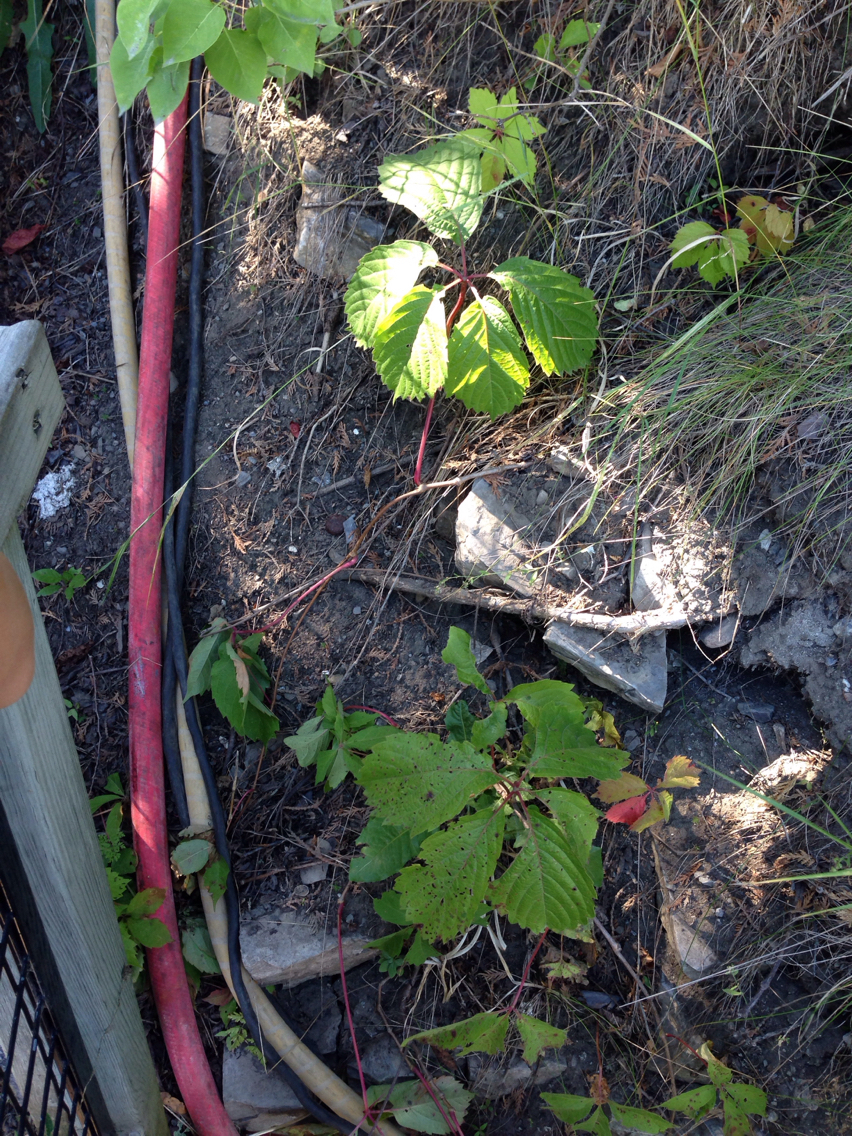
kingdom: Plantae
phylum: Tracheophyta
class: Magnoliopsida
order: Vitales
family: Vitaceae
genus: Parthenocissus
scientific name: Parthenocissus quinquefolia
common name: Virginia-creeper
